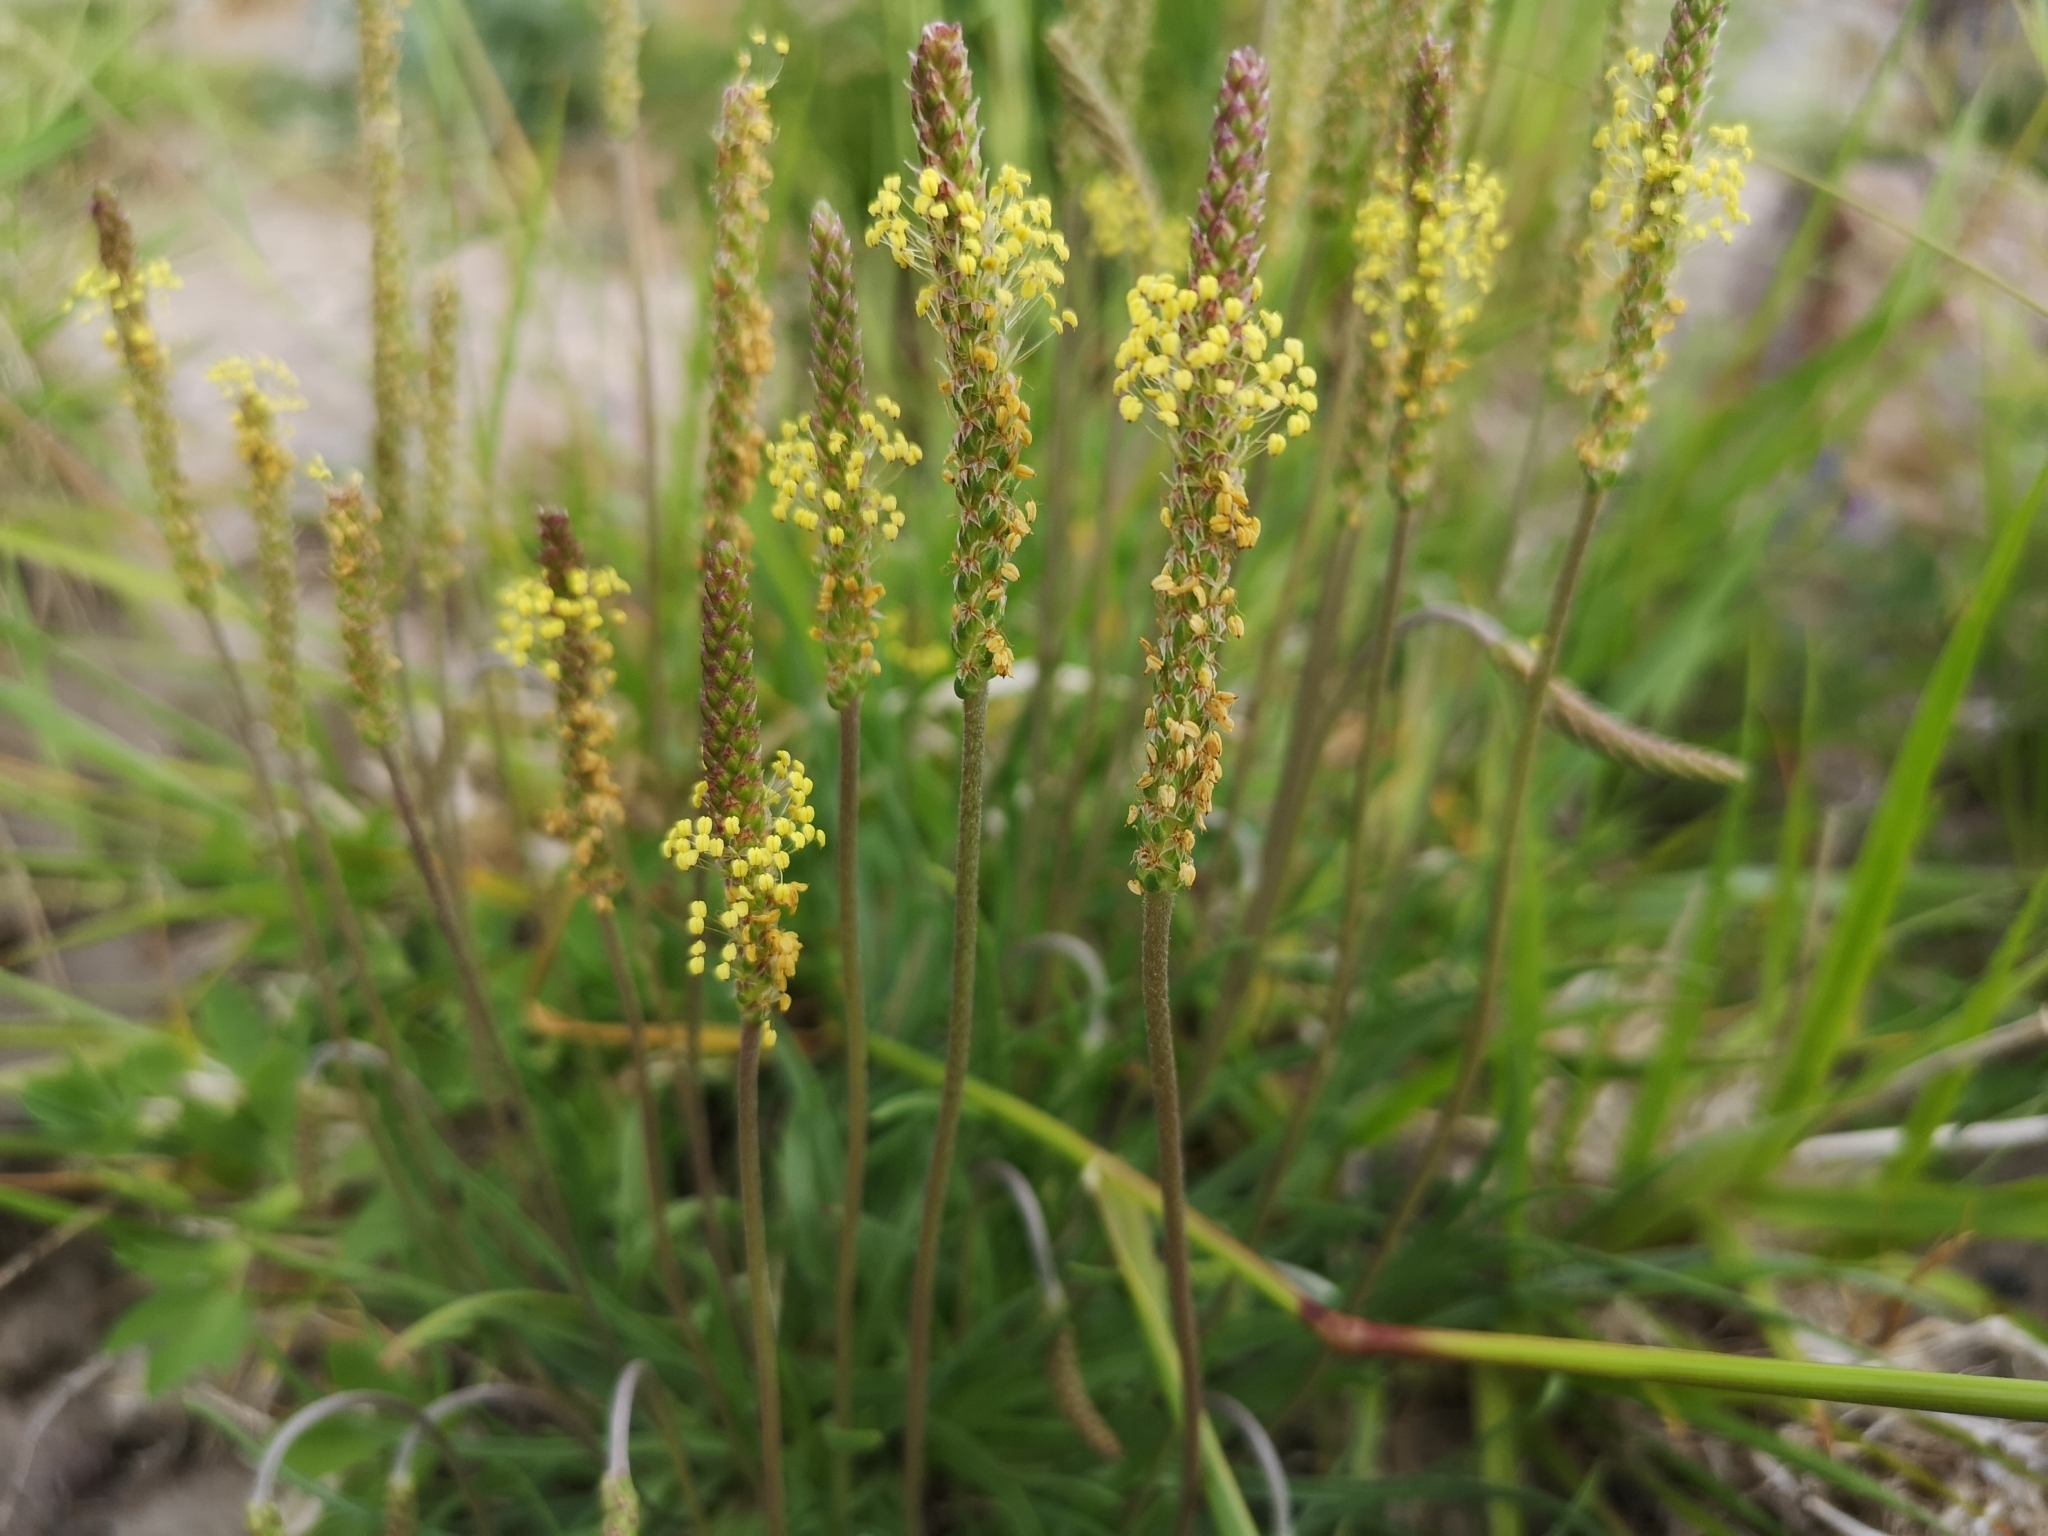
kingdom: Plantae
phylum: Tracheophyta
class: Magnoliopsida
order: Lamiales
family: Plantaginaceae
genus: Plantago
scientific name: Plantago maritima
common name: Sea plantain
